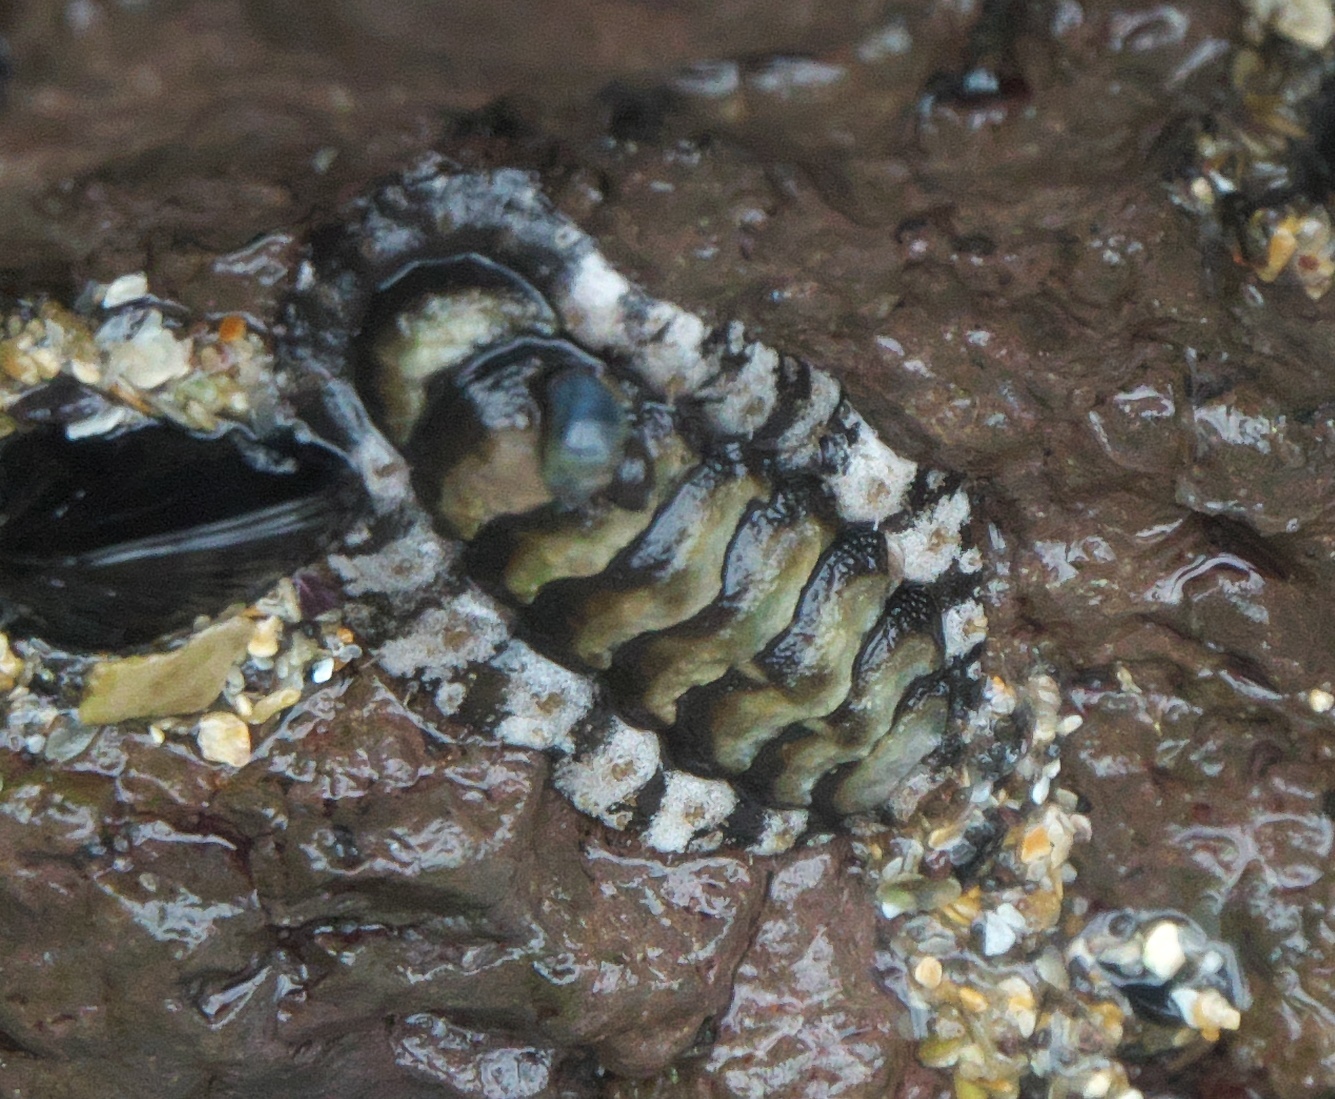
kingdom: Animalia
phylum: Mollusca
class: Polyplacophora
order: Chitonida
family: Mopaliidae
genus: Plaxiphora
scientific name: Plaxiphora caelata
